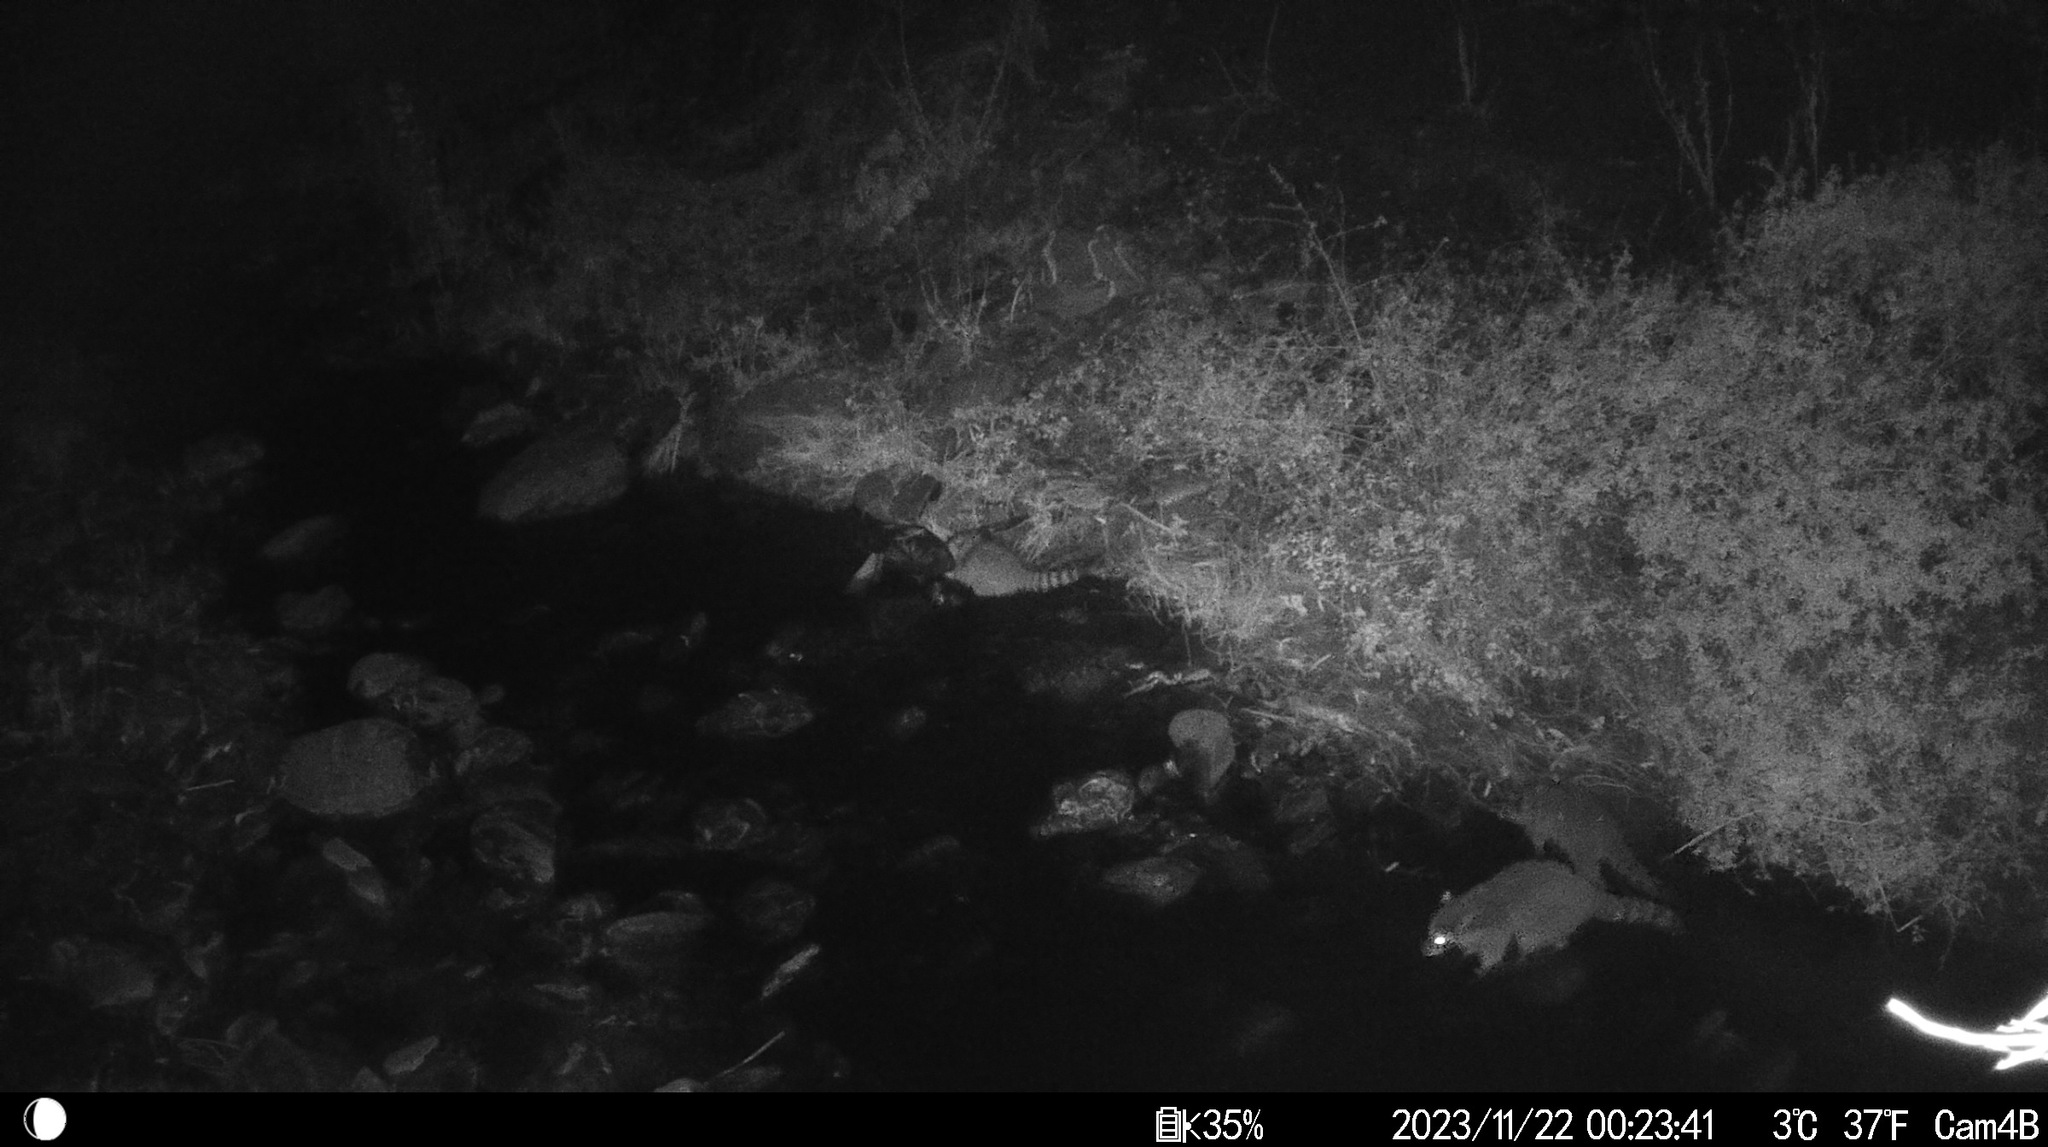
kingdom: Animalia
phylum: Chordata
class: Mammalia
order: Carnivora
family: Procyonidae
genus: Procyon
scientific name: Procyon lotor
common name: Raccoon
